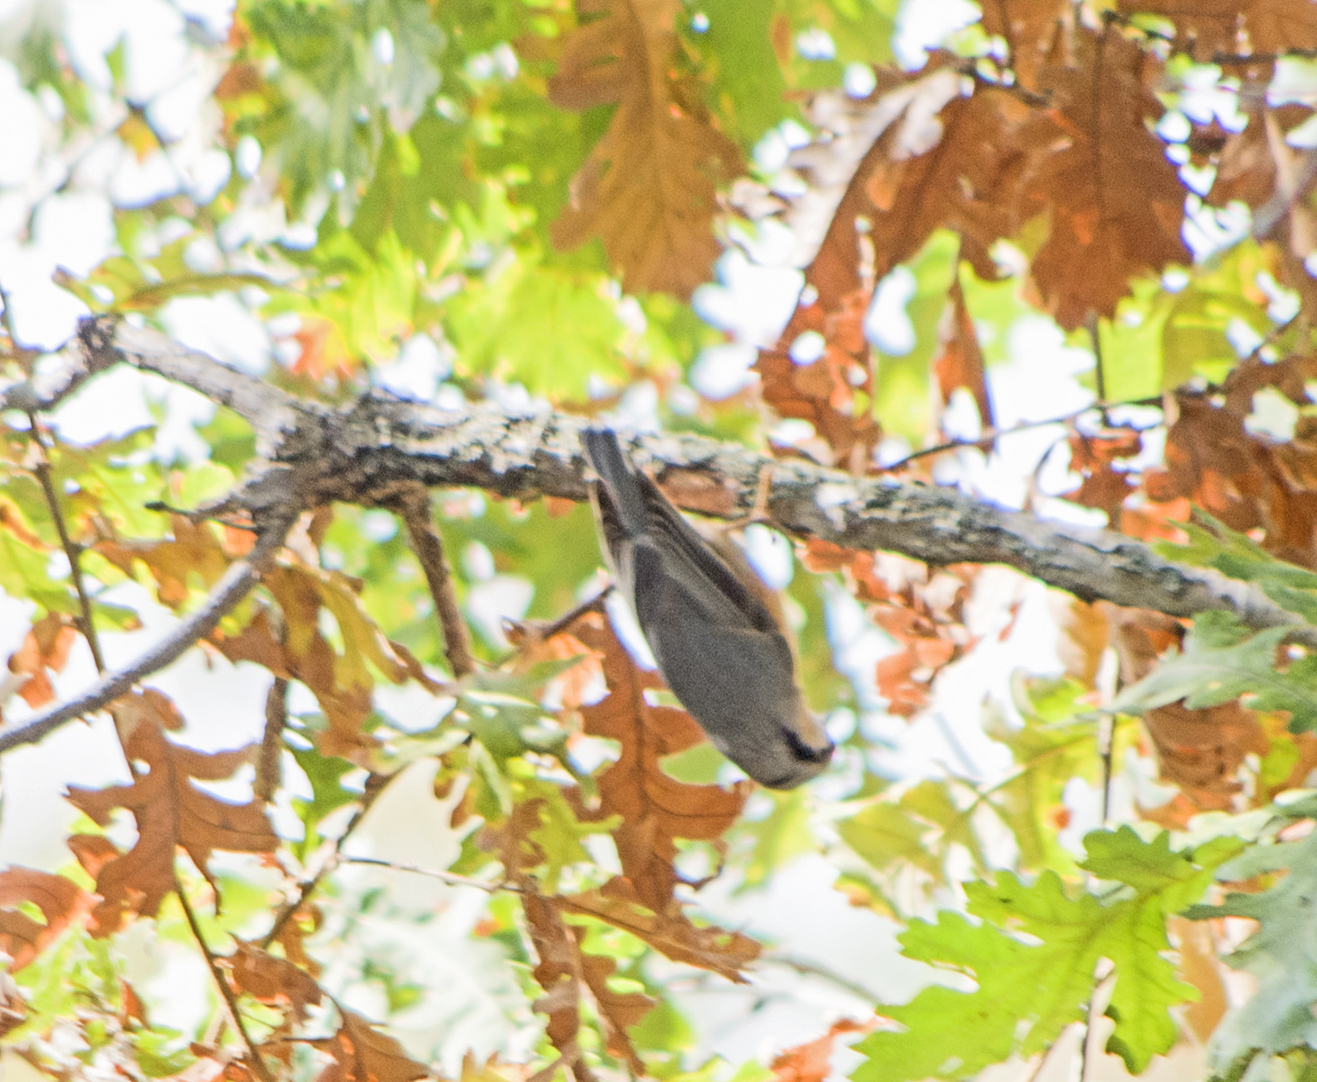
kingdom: Animalia
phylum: Chordata
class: Aves
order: Passeriformes
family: Sittidae
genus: Sitta
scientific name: Sitta europaea
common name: Eurasian nuthatch
